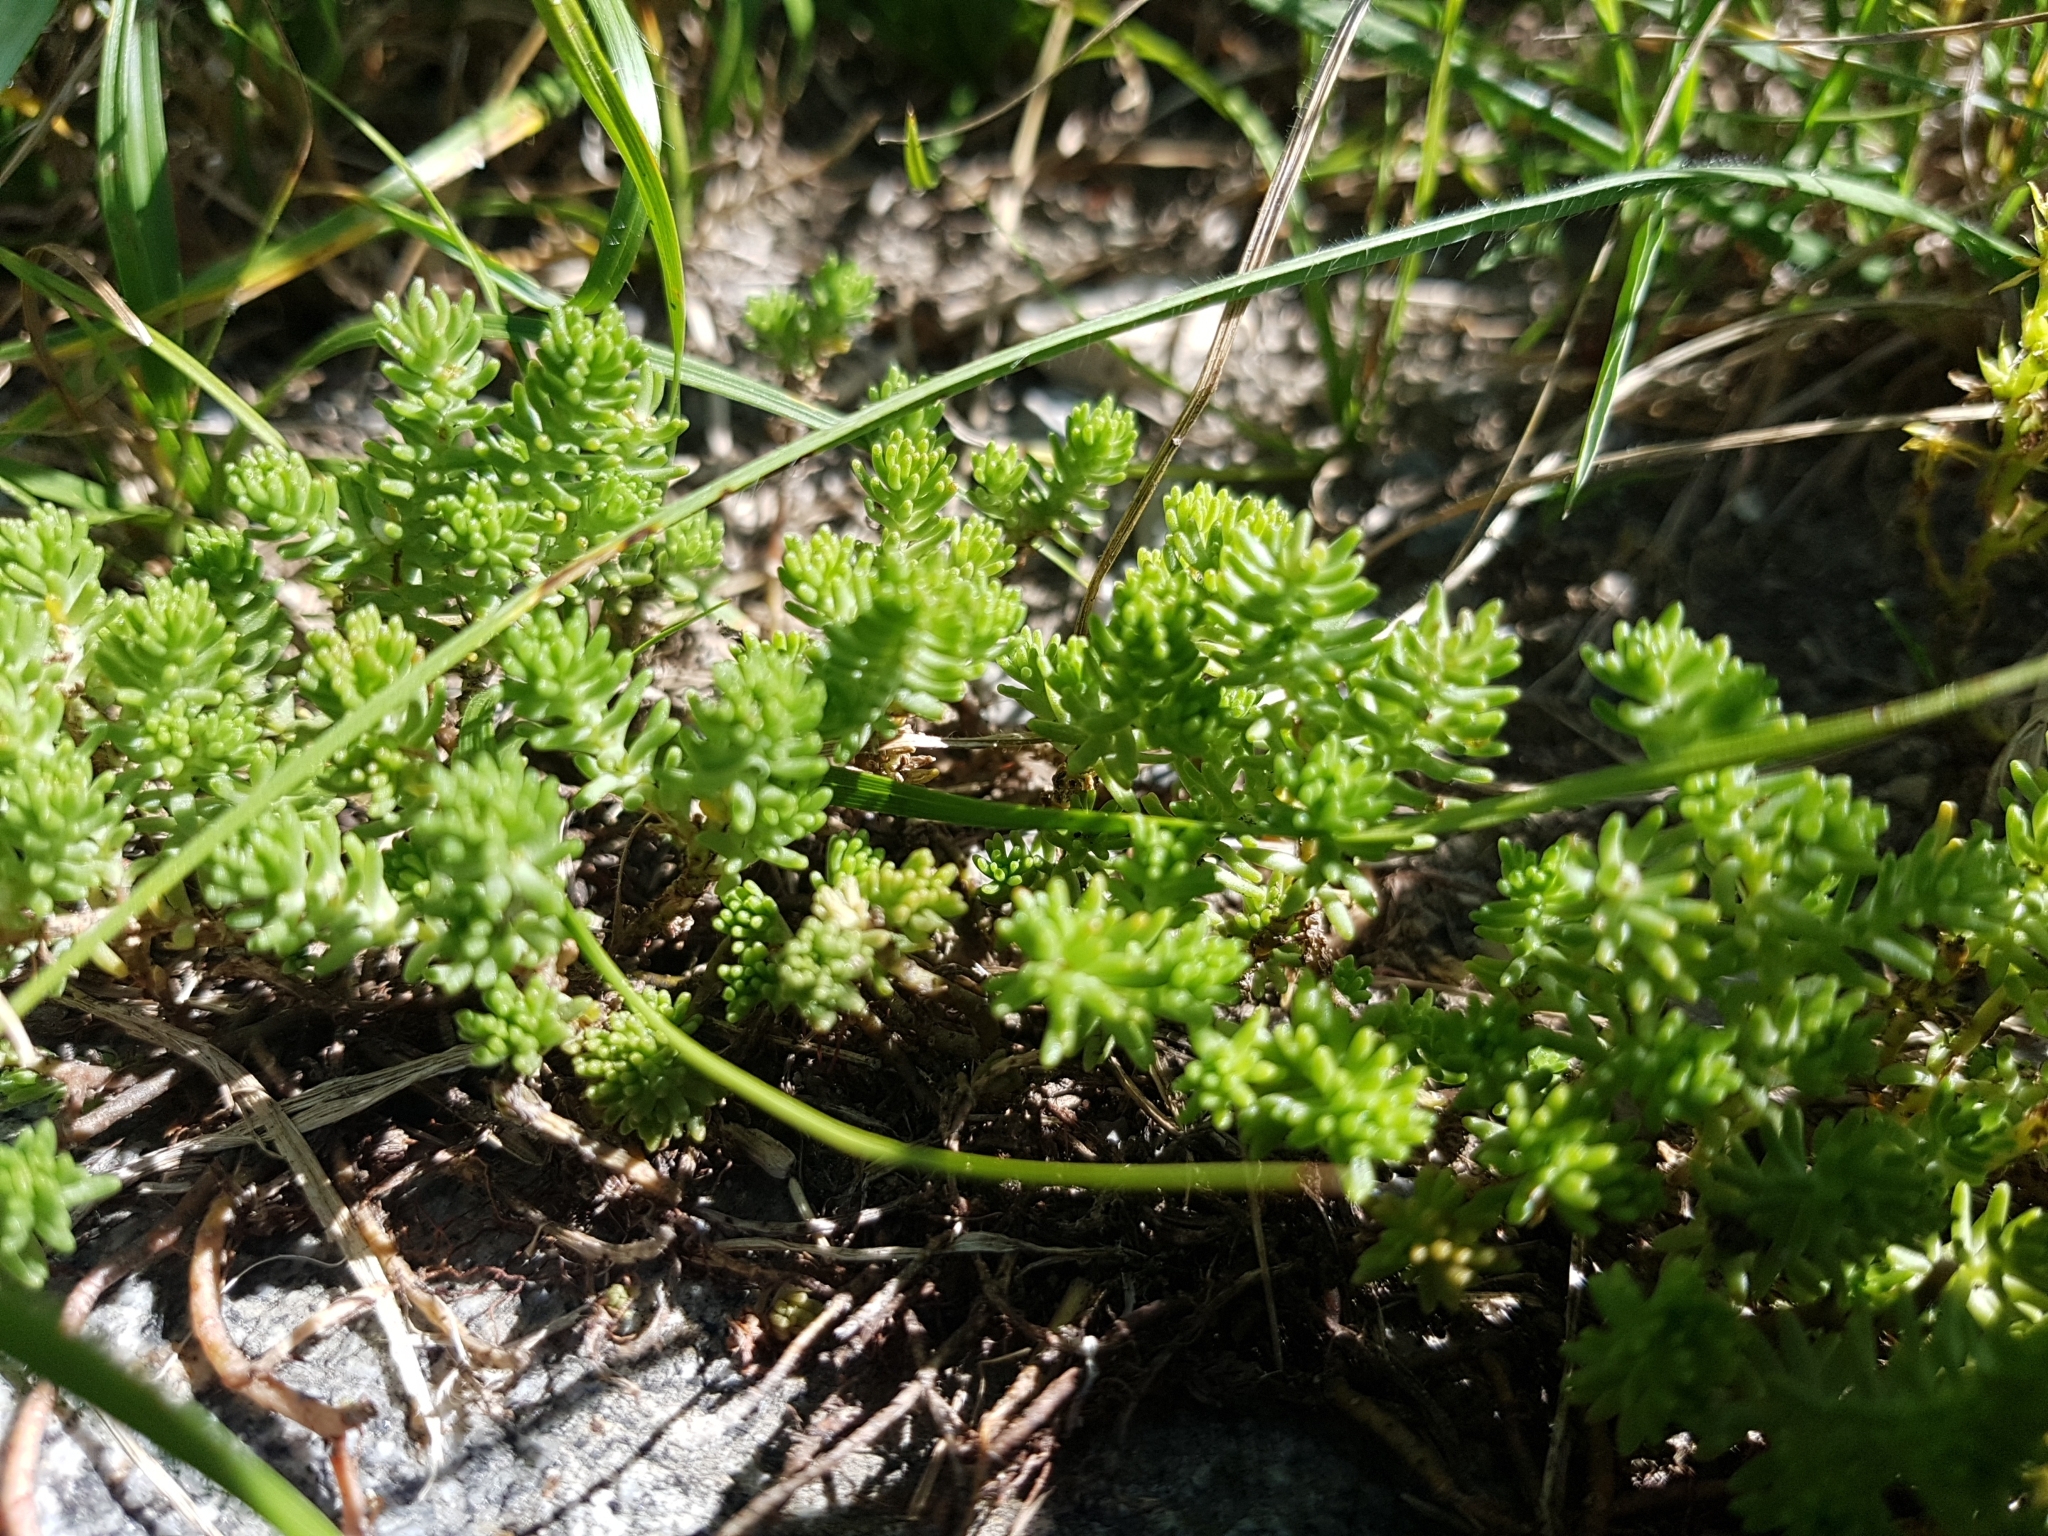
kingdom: Plantae
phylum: Tracheophyta
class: Magnoliopsida
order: Saxifragales
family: Crassulaceae
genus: Sedum
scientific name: Sedum sexangulare
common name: Tasteless stonecrop
